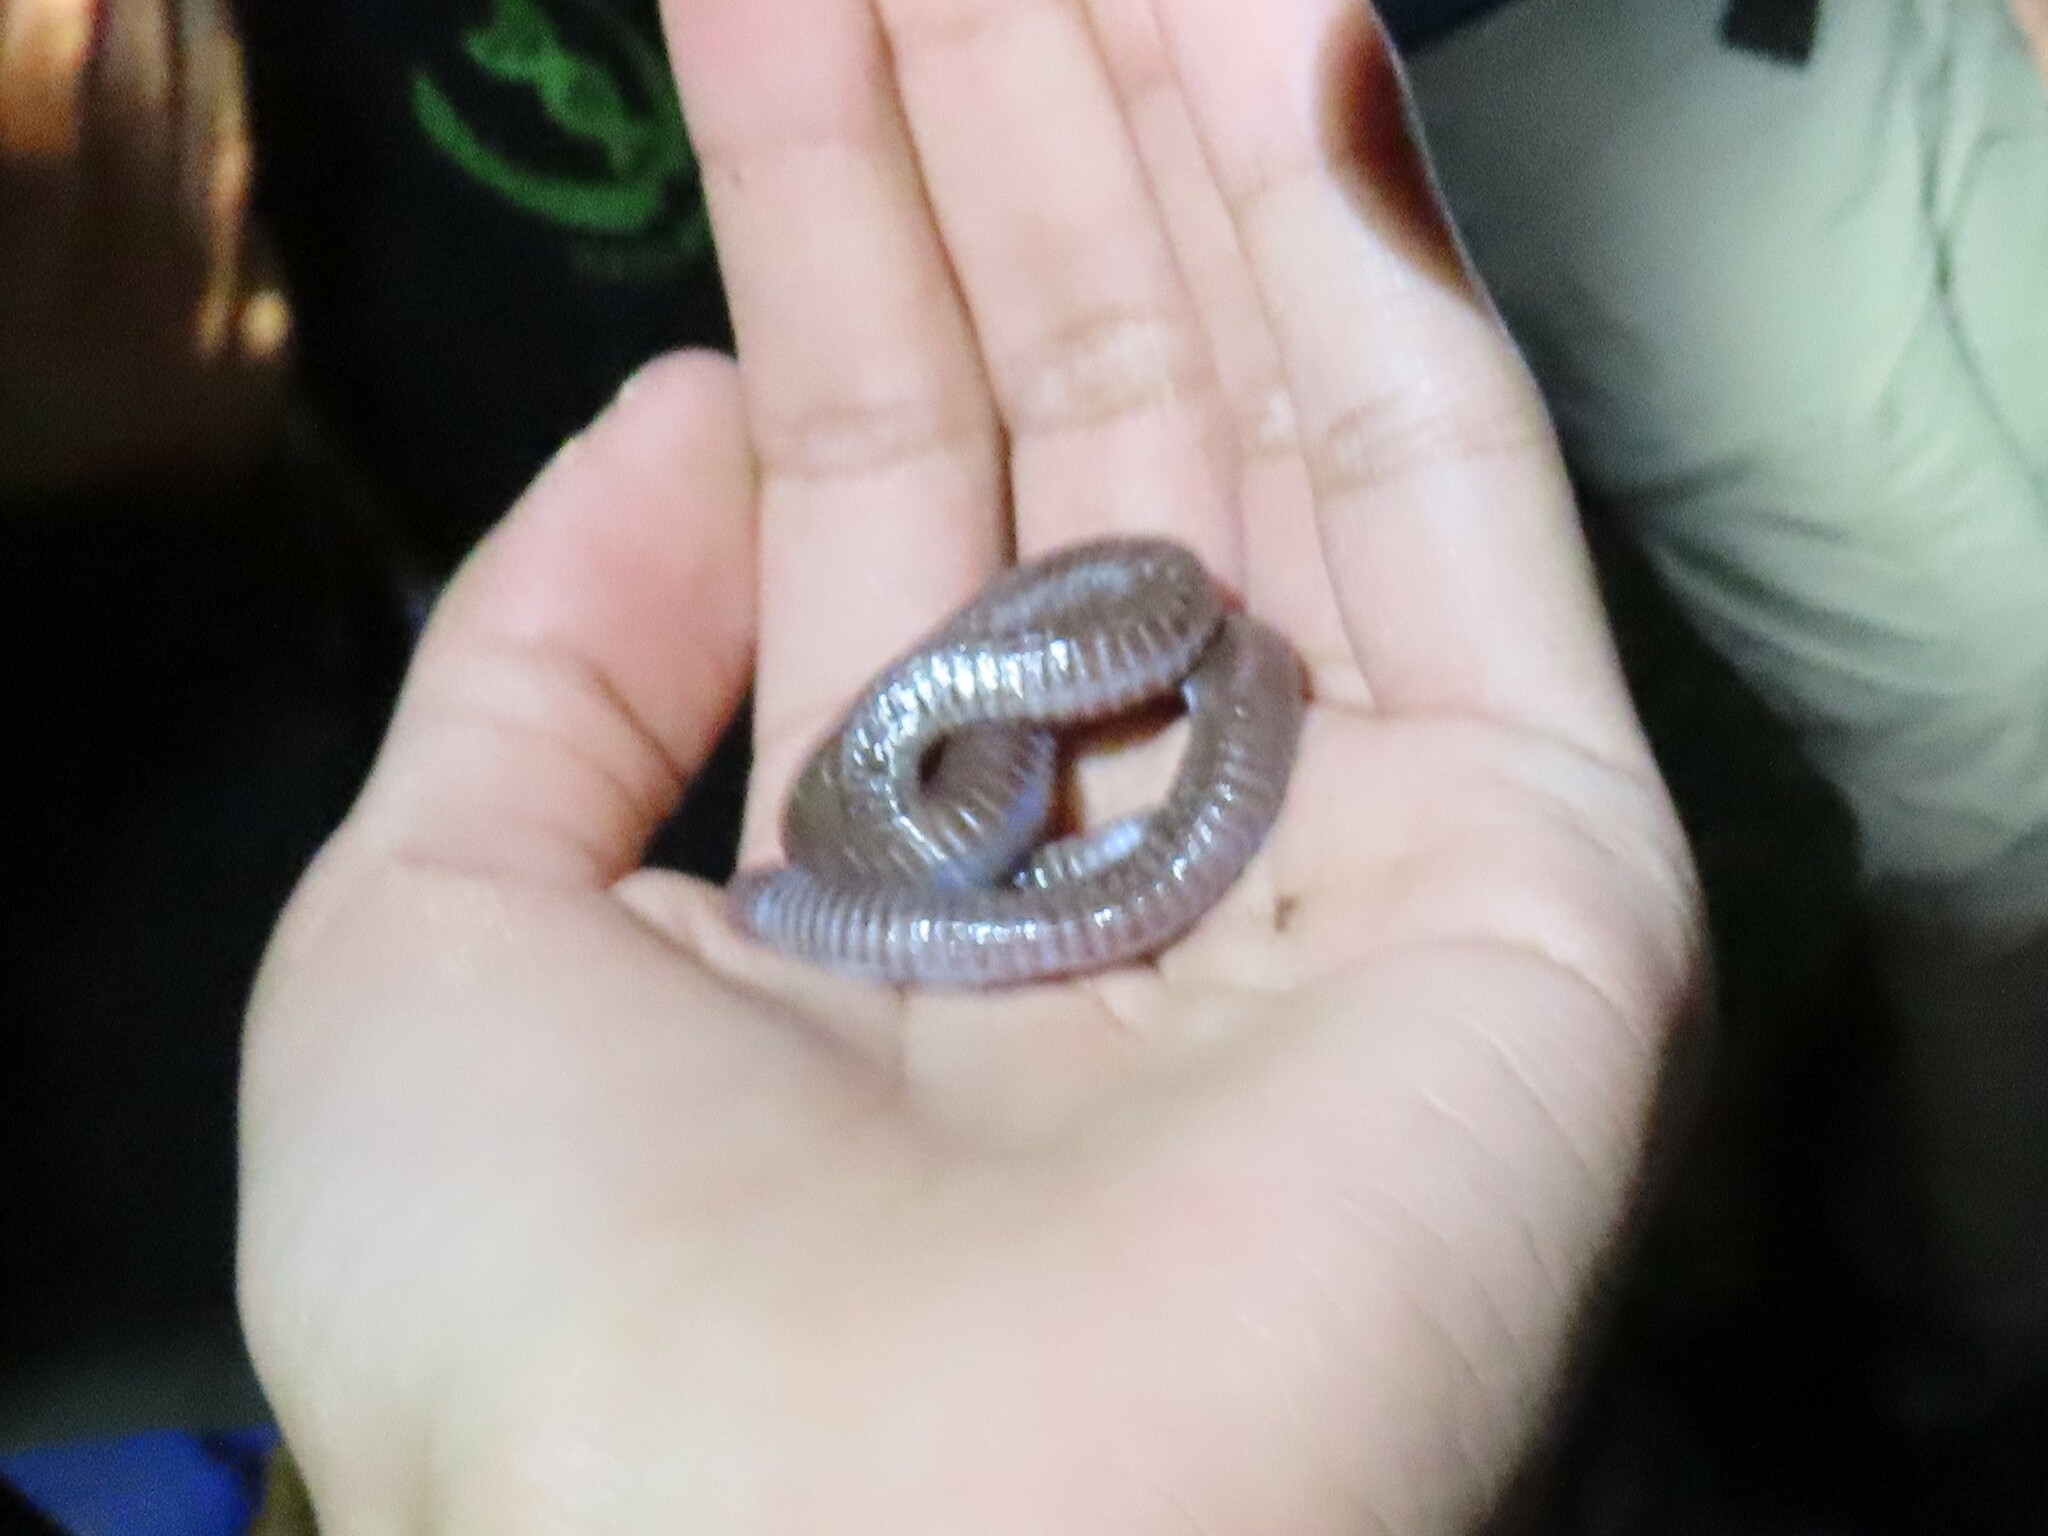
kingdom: Animalia
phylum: Chordata
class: Squamata
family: Blanidae
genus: Blanus
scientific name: Blanus vandellii
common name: Vandelli's worm lizard
